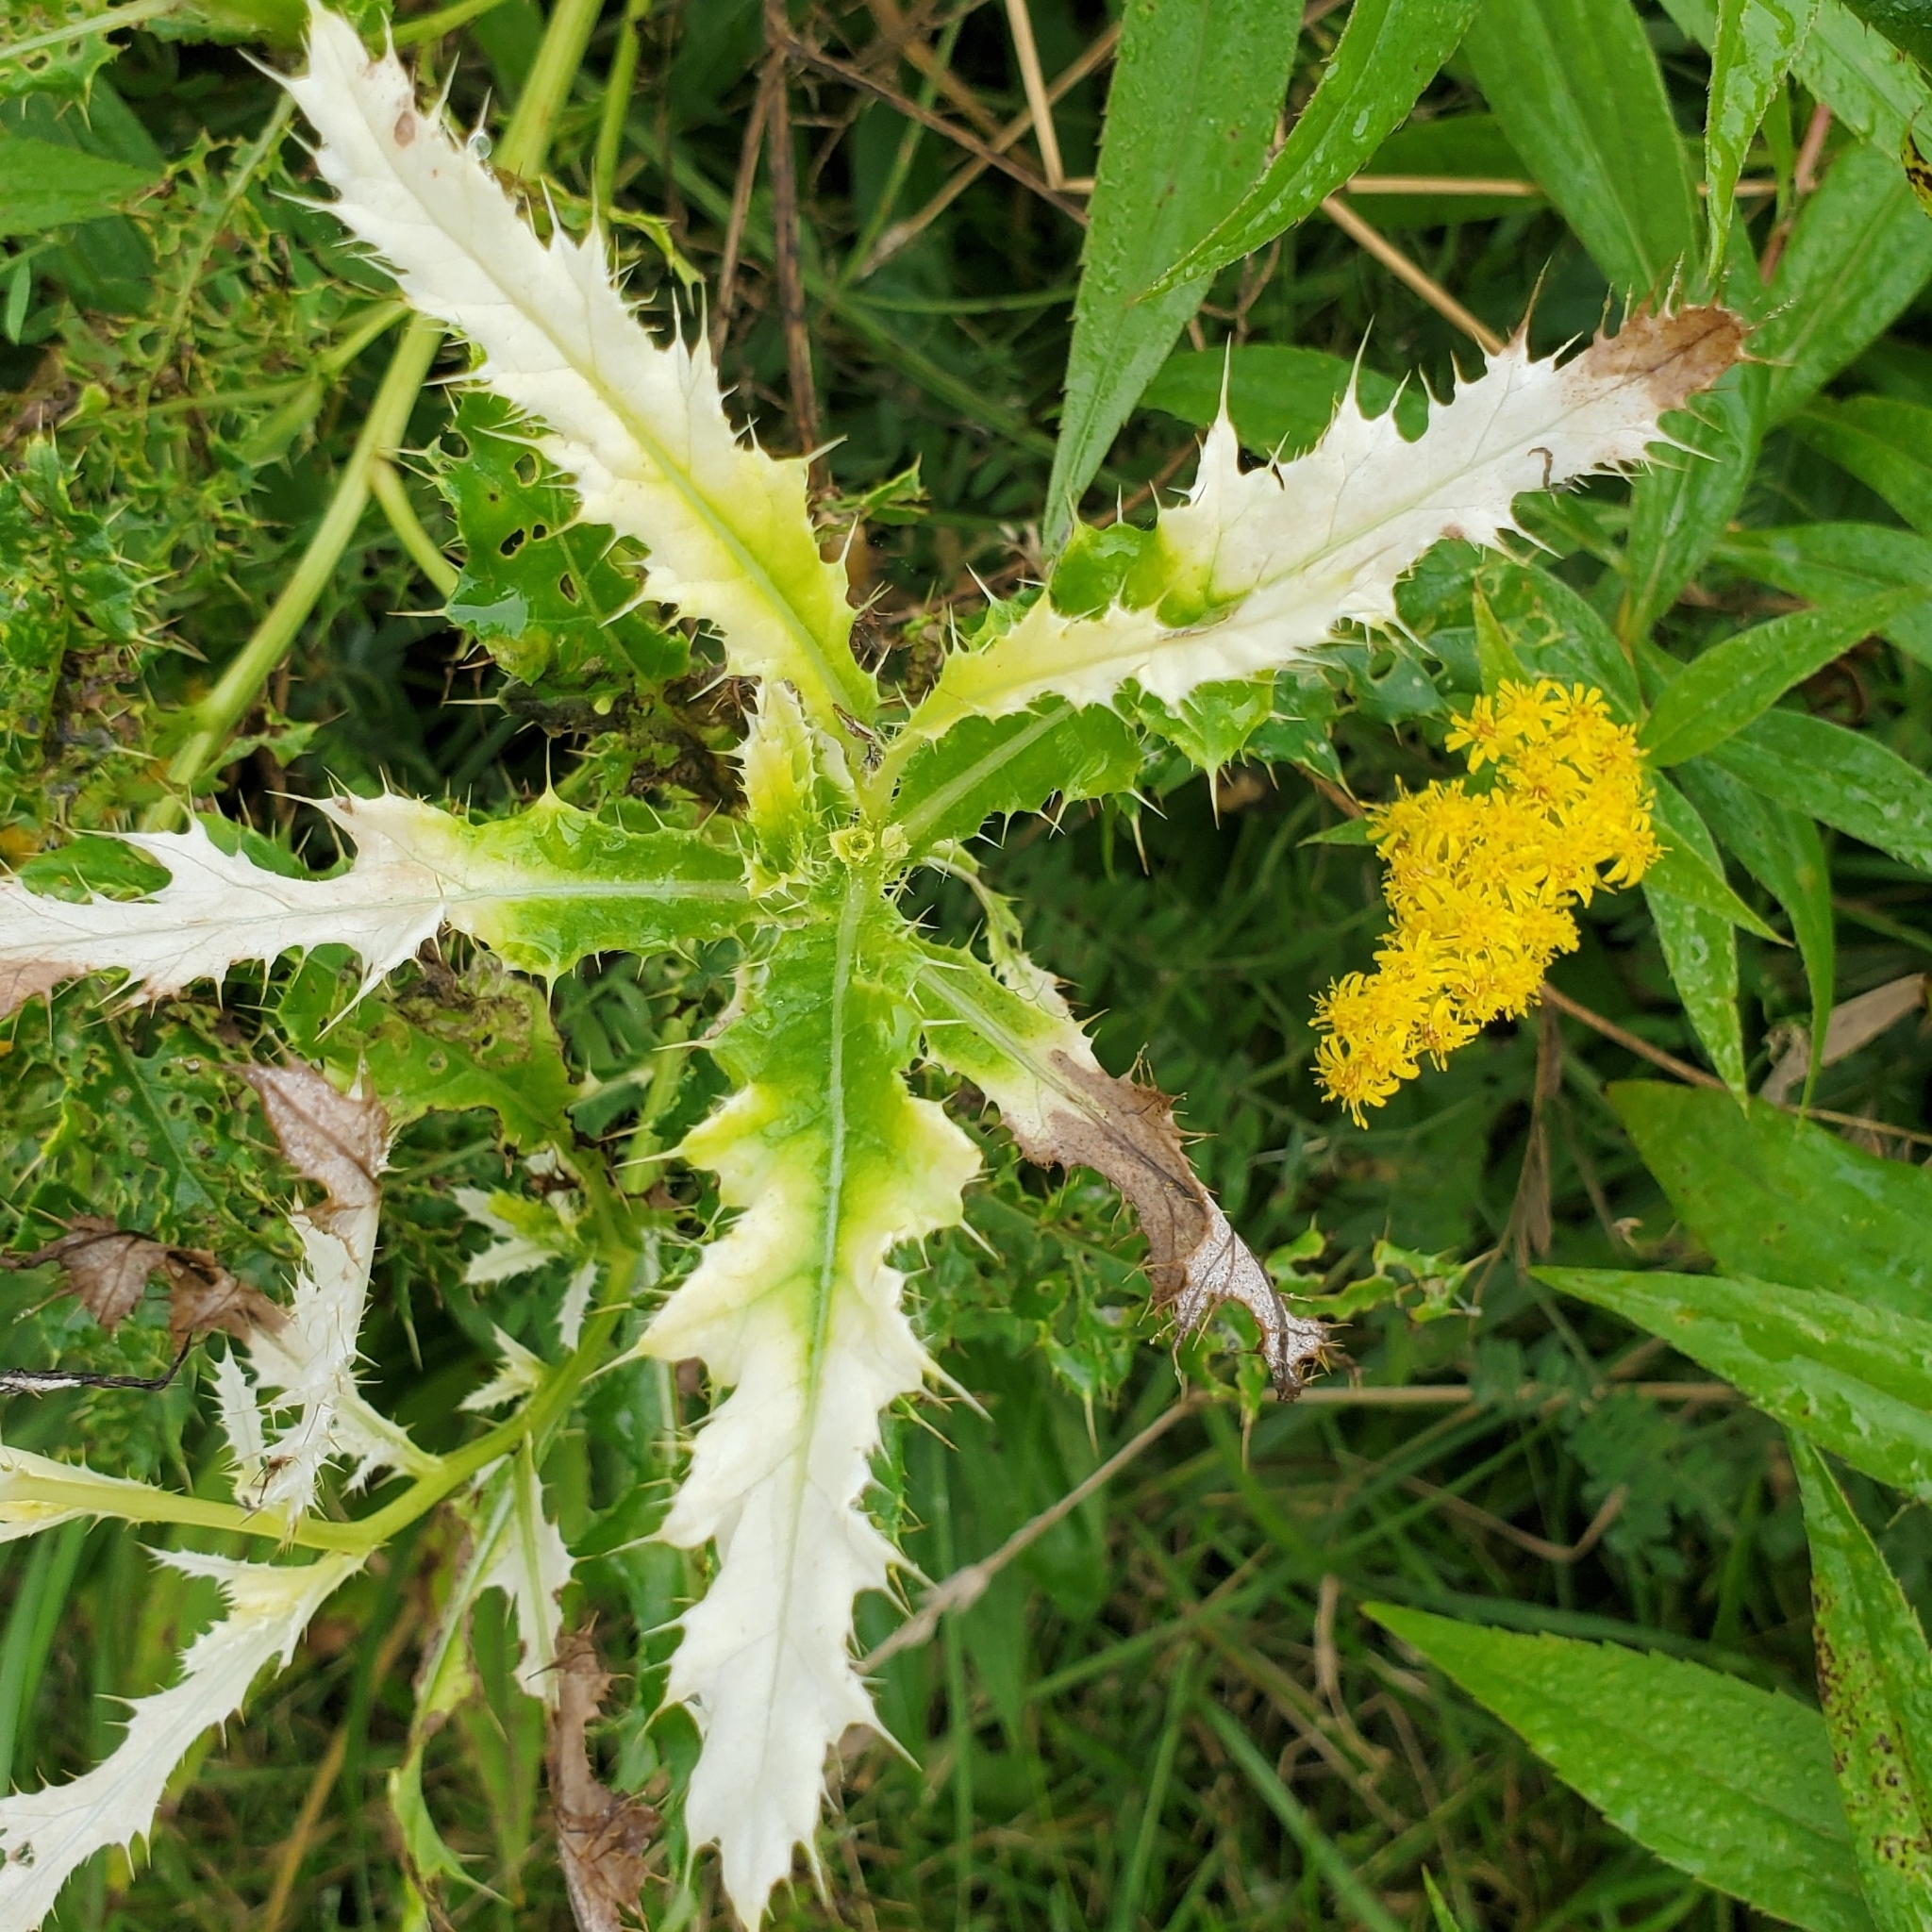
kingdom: Bacteria
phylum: Proteobacteria
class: Gammaproteobacteria
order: Pseudomonadales
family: Pseudomonadaceae
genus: Pseudomonas
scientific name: Pseudomonas syringae
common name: Bacterial speck
